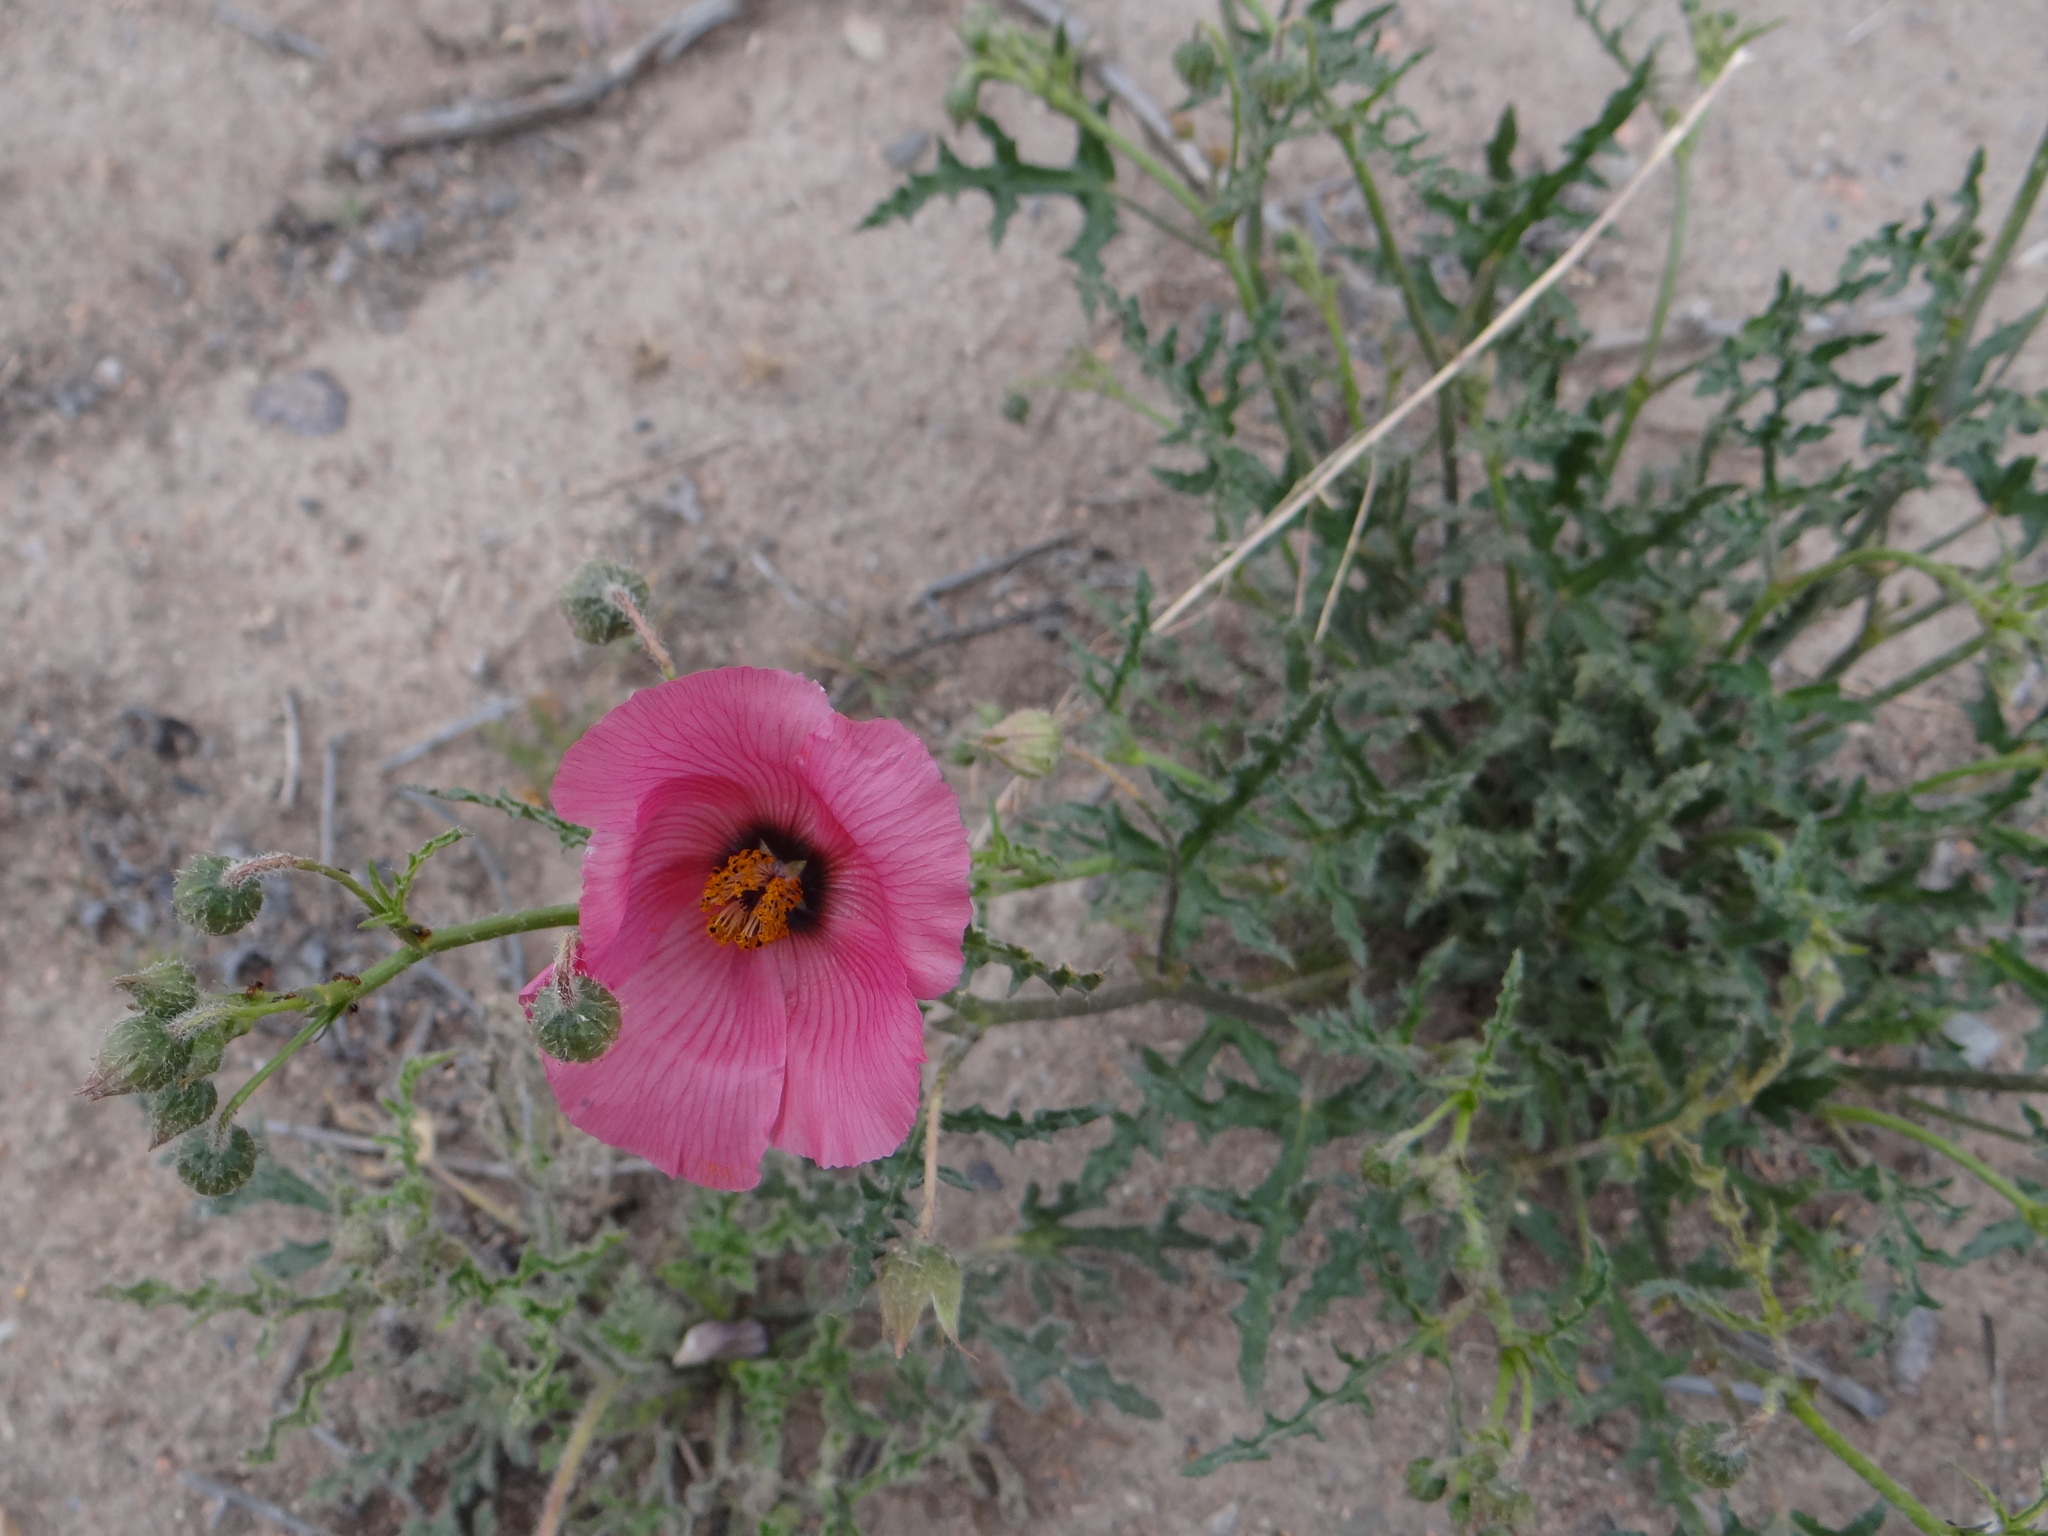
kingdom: Plantae
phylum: Tracheophyta
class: Magnoliopsida
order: Malvales
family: Malvaceae
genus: Lecanophora
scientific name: Lecanophora heterophylla
